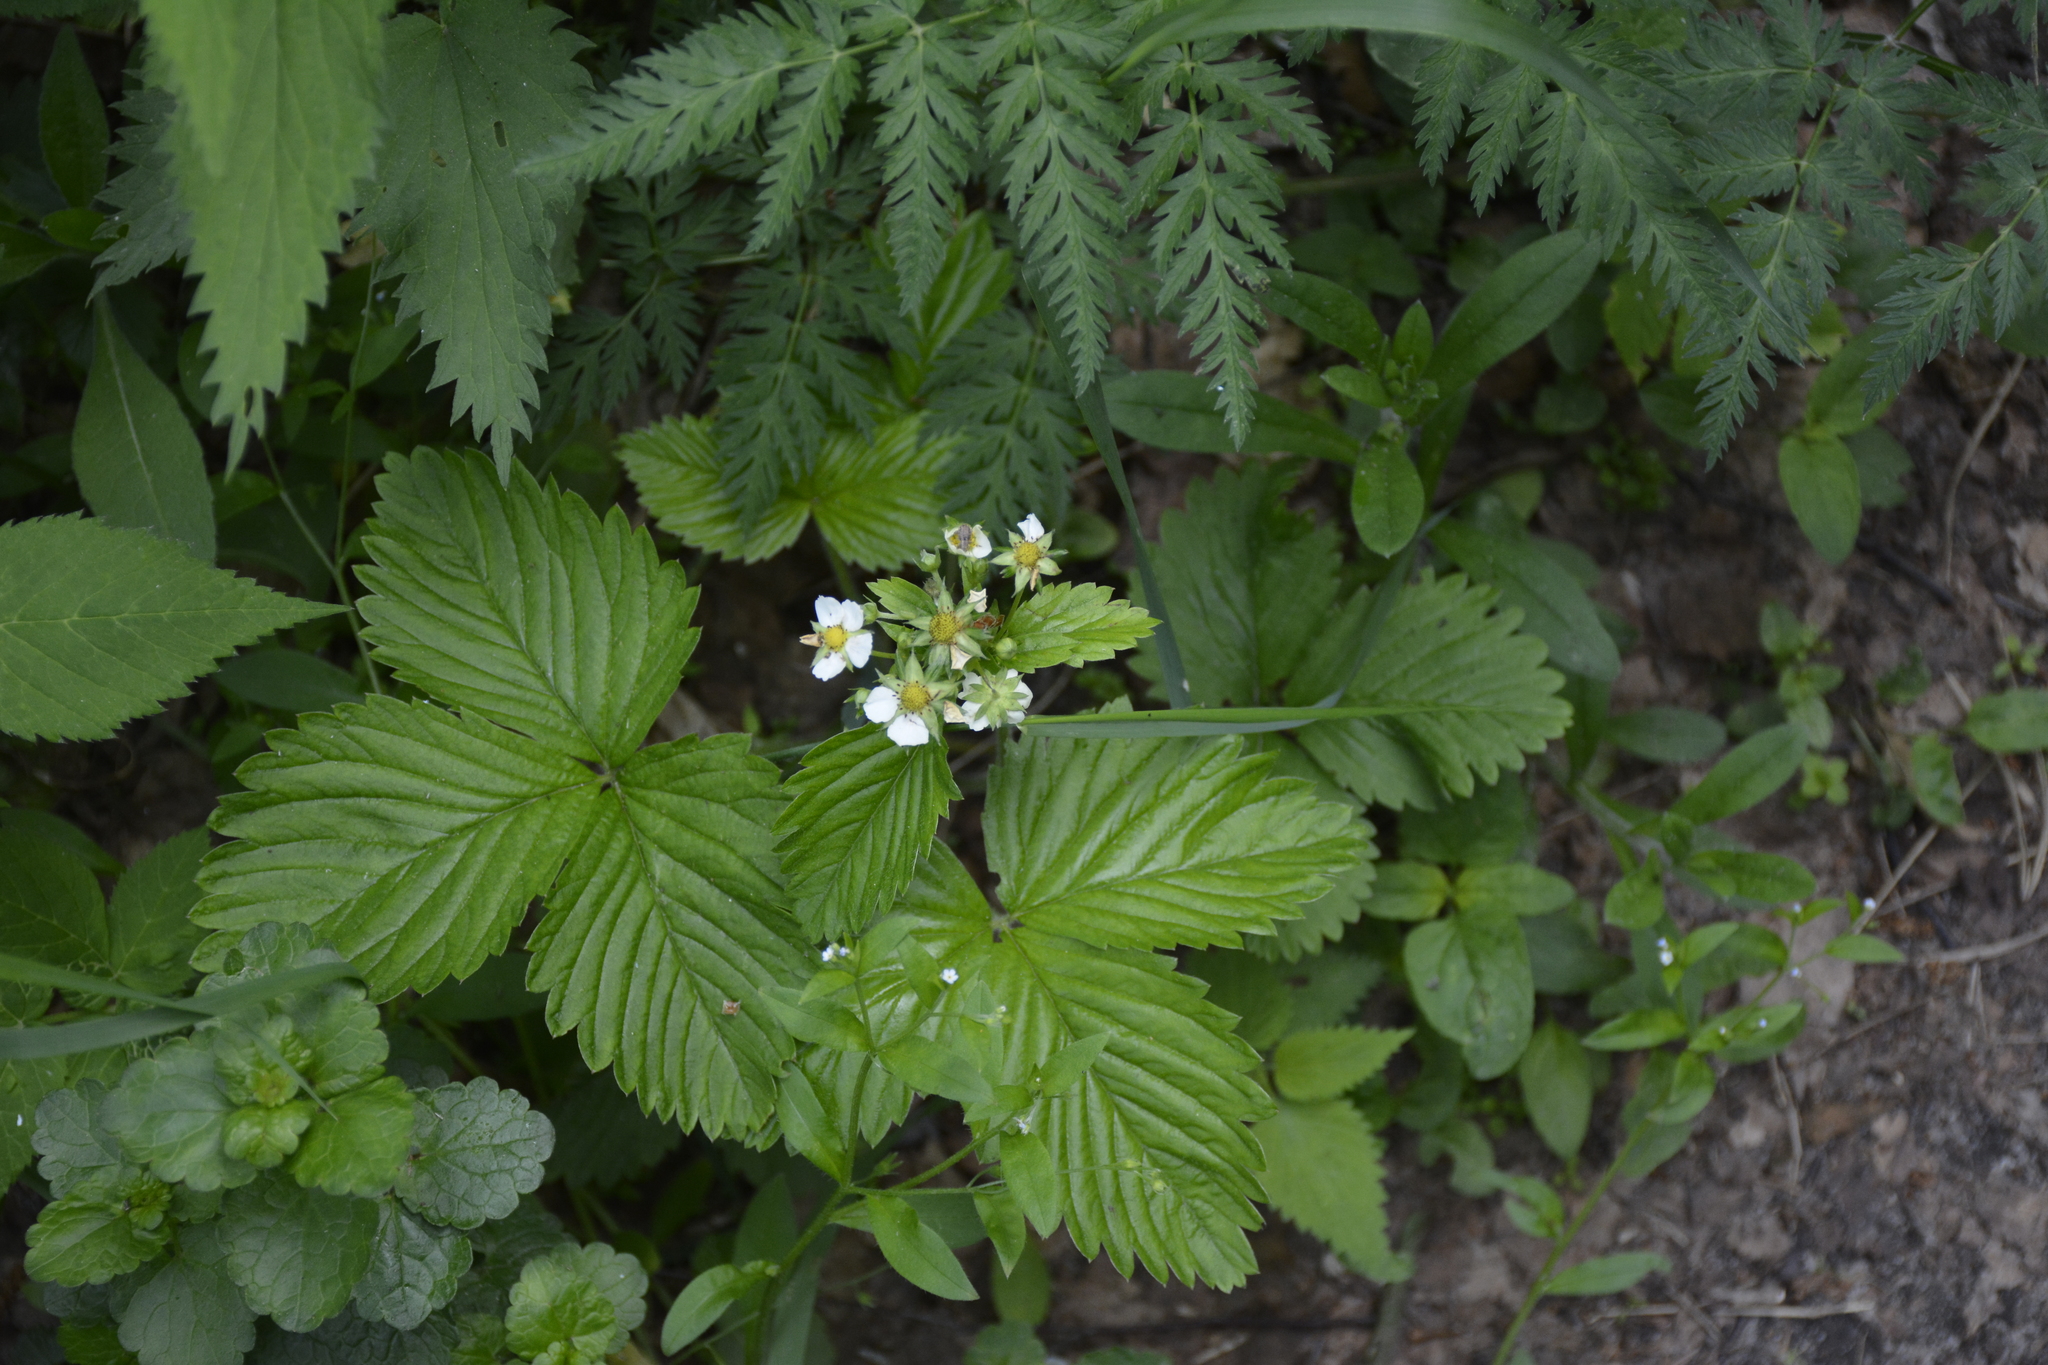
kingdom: Plantae
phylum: Tracheophyta
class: Magnoliopsida
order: Rosales
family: Rosaceae
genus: Fragaria
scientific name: Fragaria moschata
